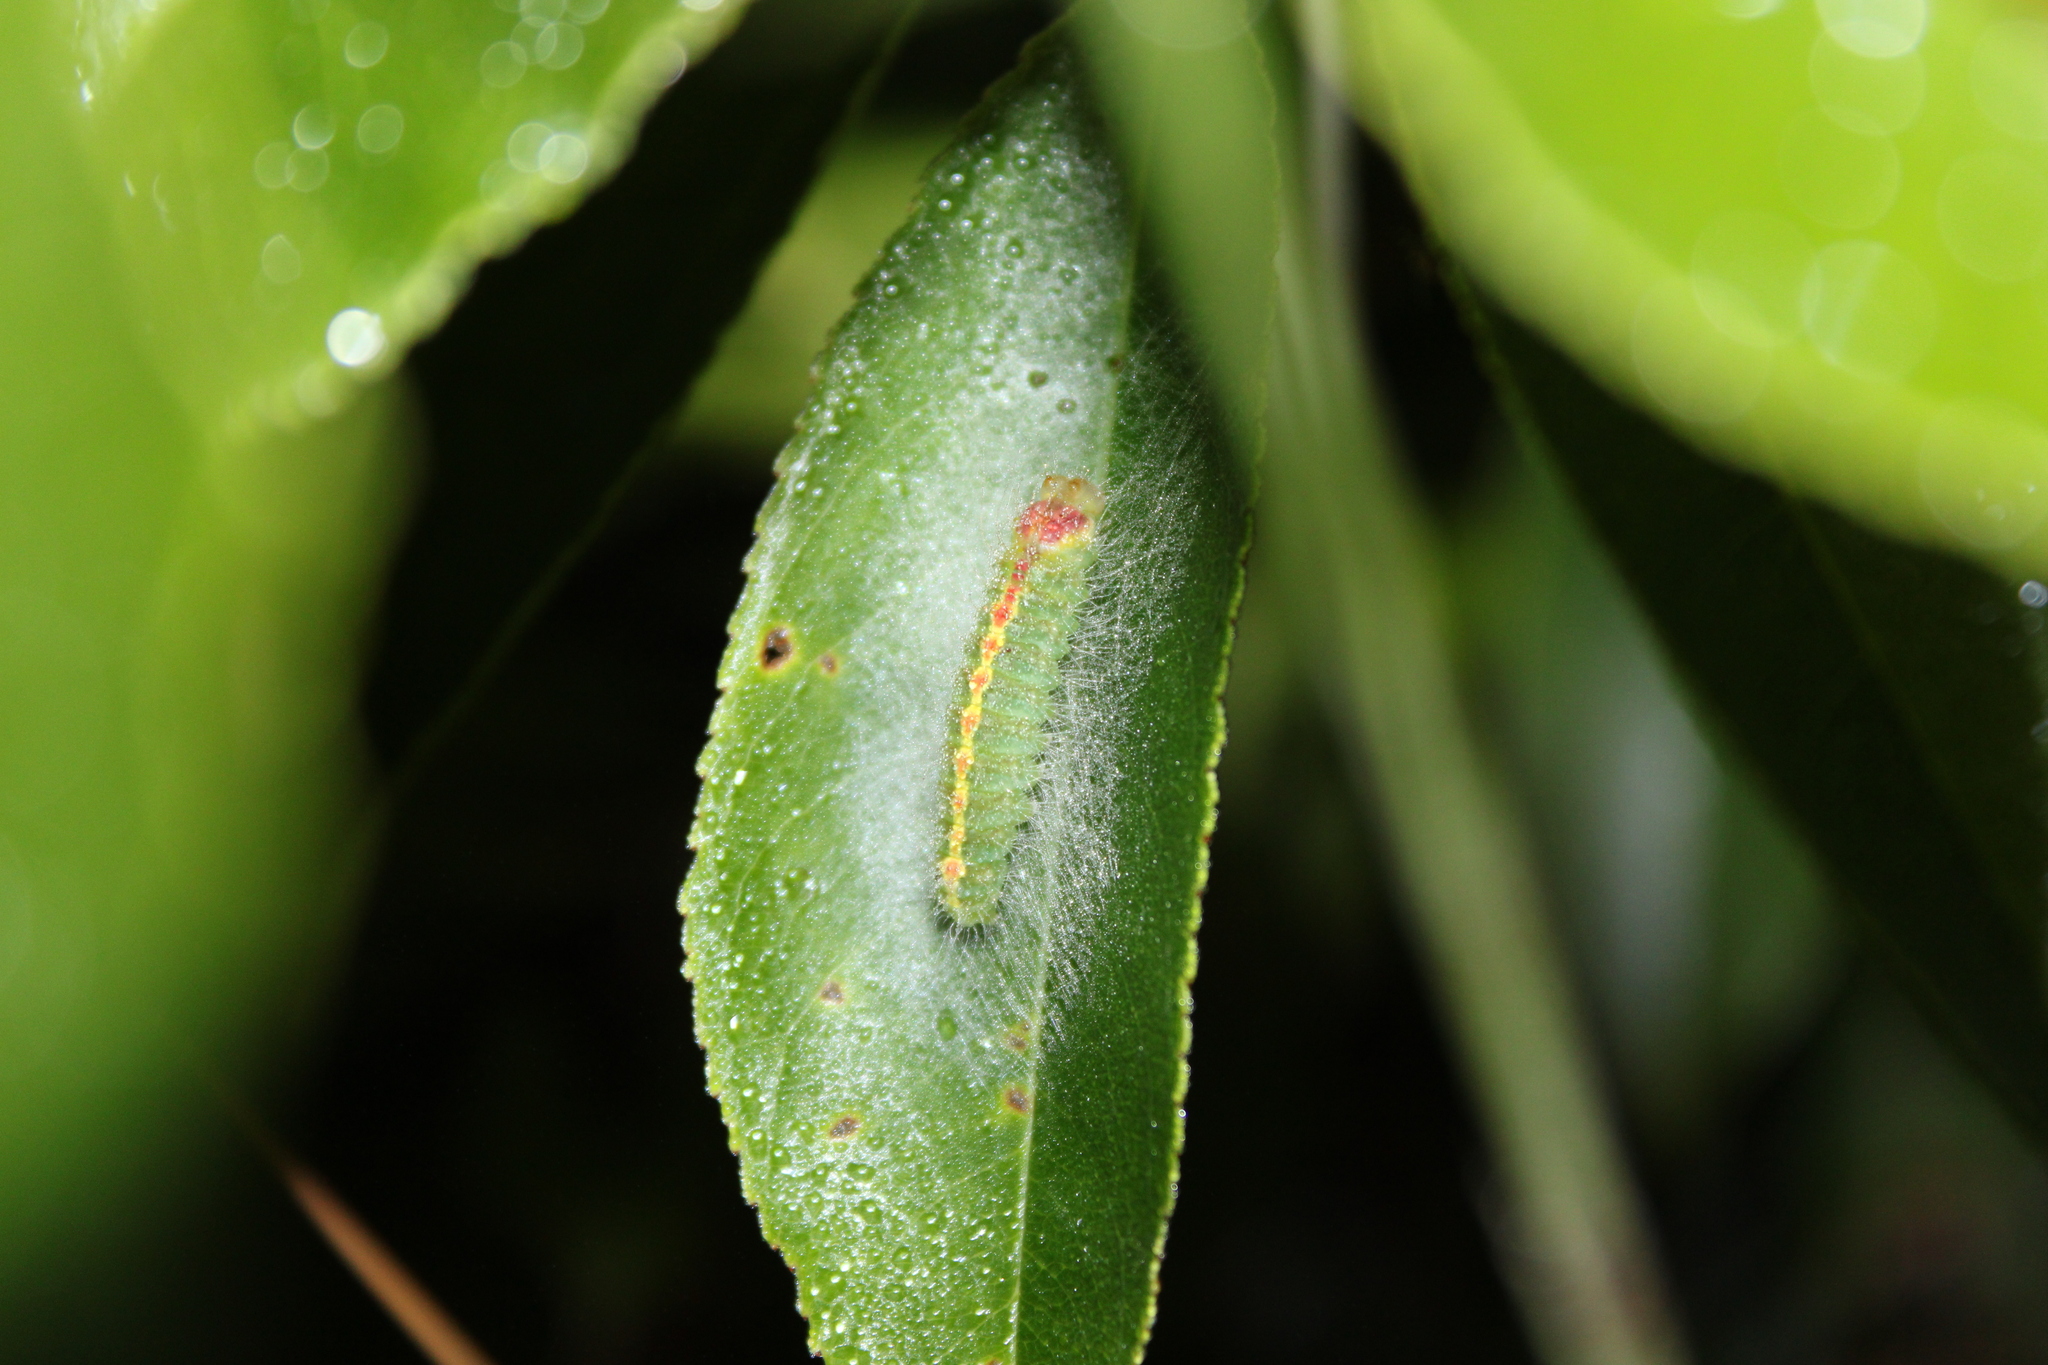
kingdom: Animalia
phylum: Arthropoda
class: Insecta
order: Lepidoptera
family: Noctuidae
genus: Acronicta
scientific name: Acronicta hasta
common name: Cherry dagger
